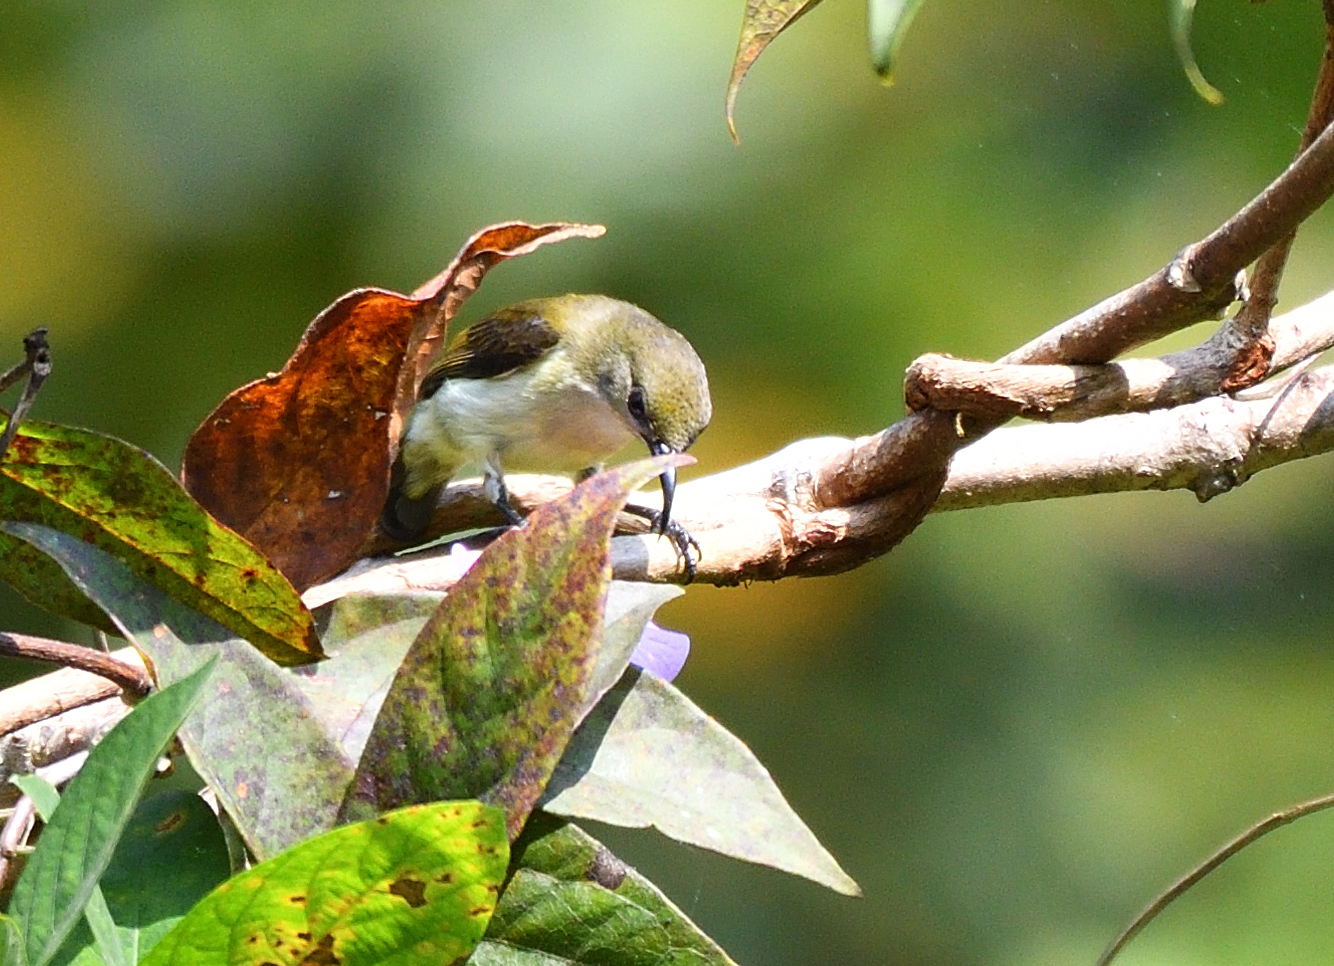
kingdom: Animalia
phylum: Chordata
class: Aves
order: Passeriformes
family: Nectariniidae
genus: Arachnothera
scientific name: Arachnothera longirostra
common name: Little spiderhunter
